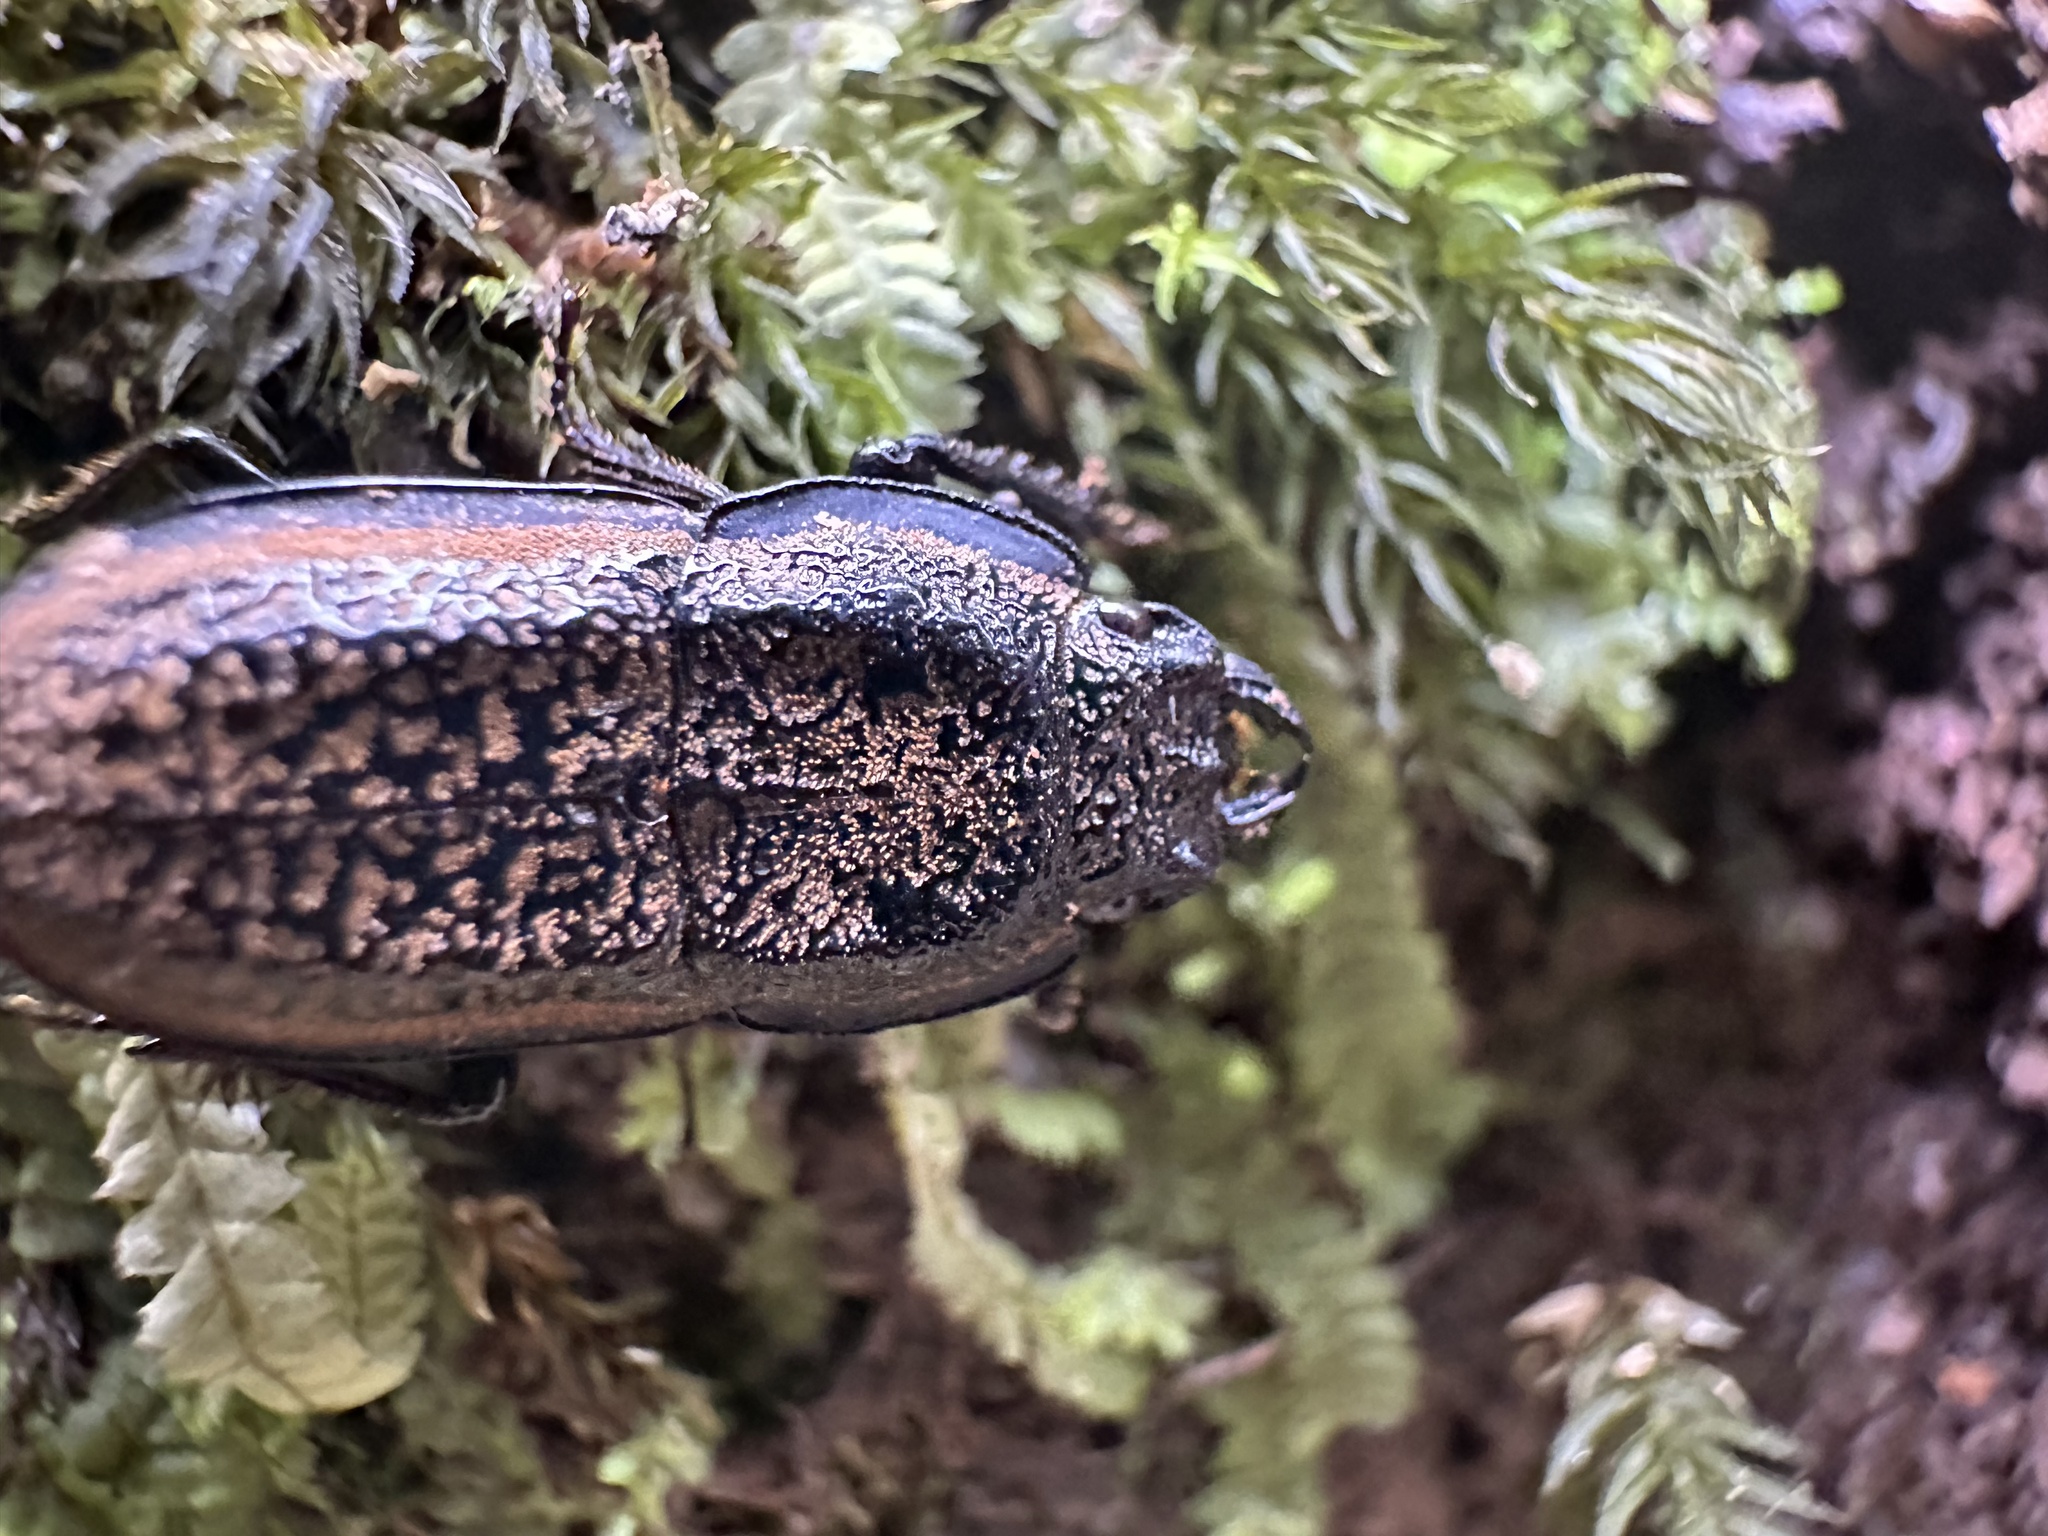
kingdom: Animalia
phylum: Arthropoda
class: Insecta
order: Coleoptera
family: Lucanidae
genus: Erichius
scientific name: Erichius caelatus
